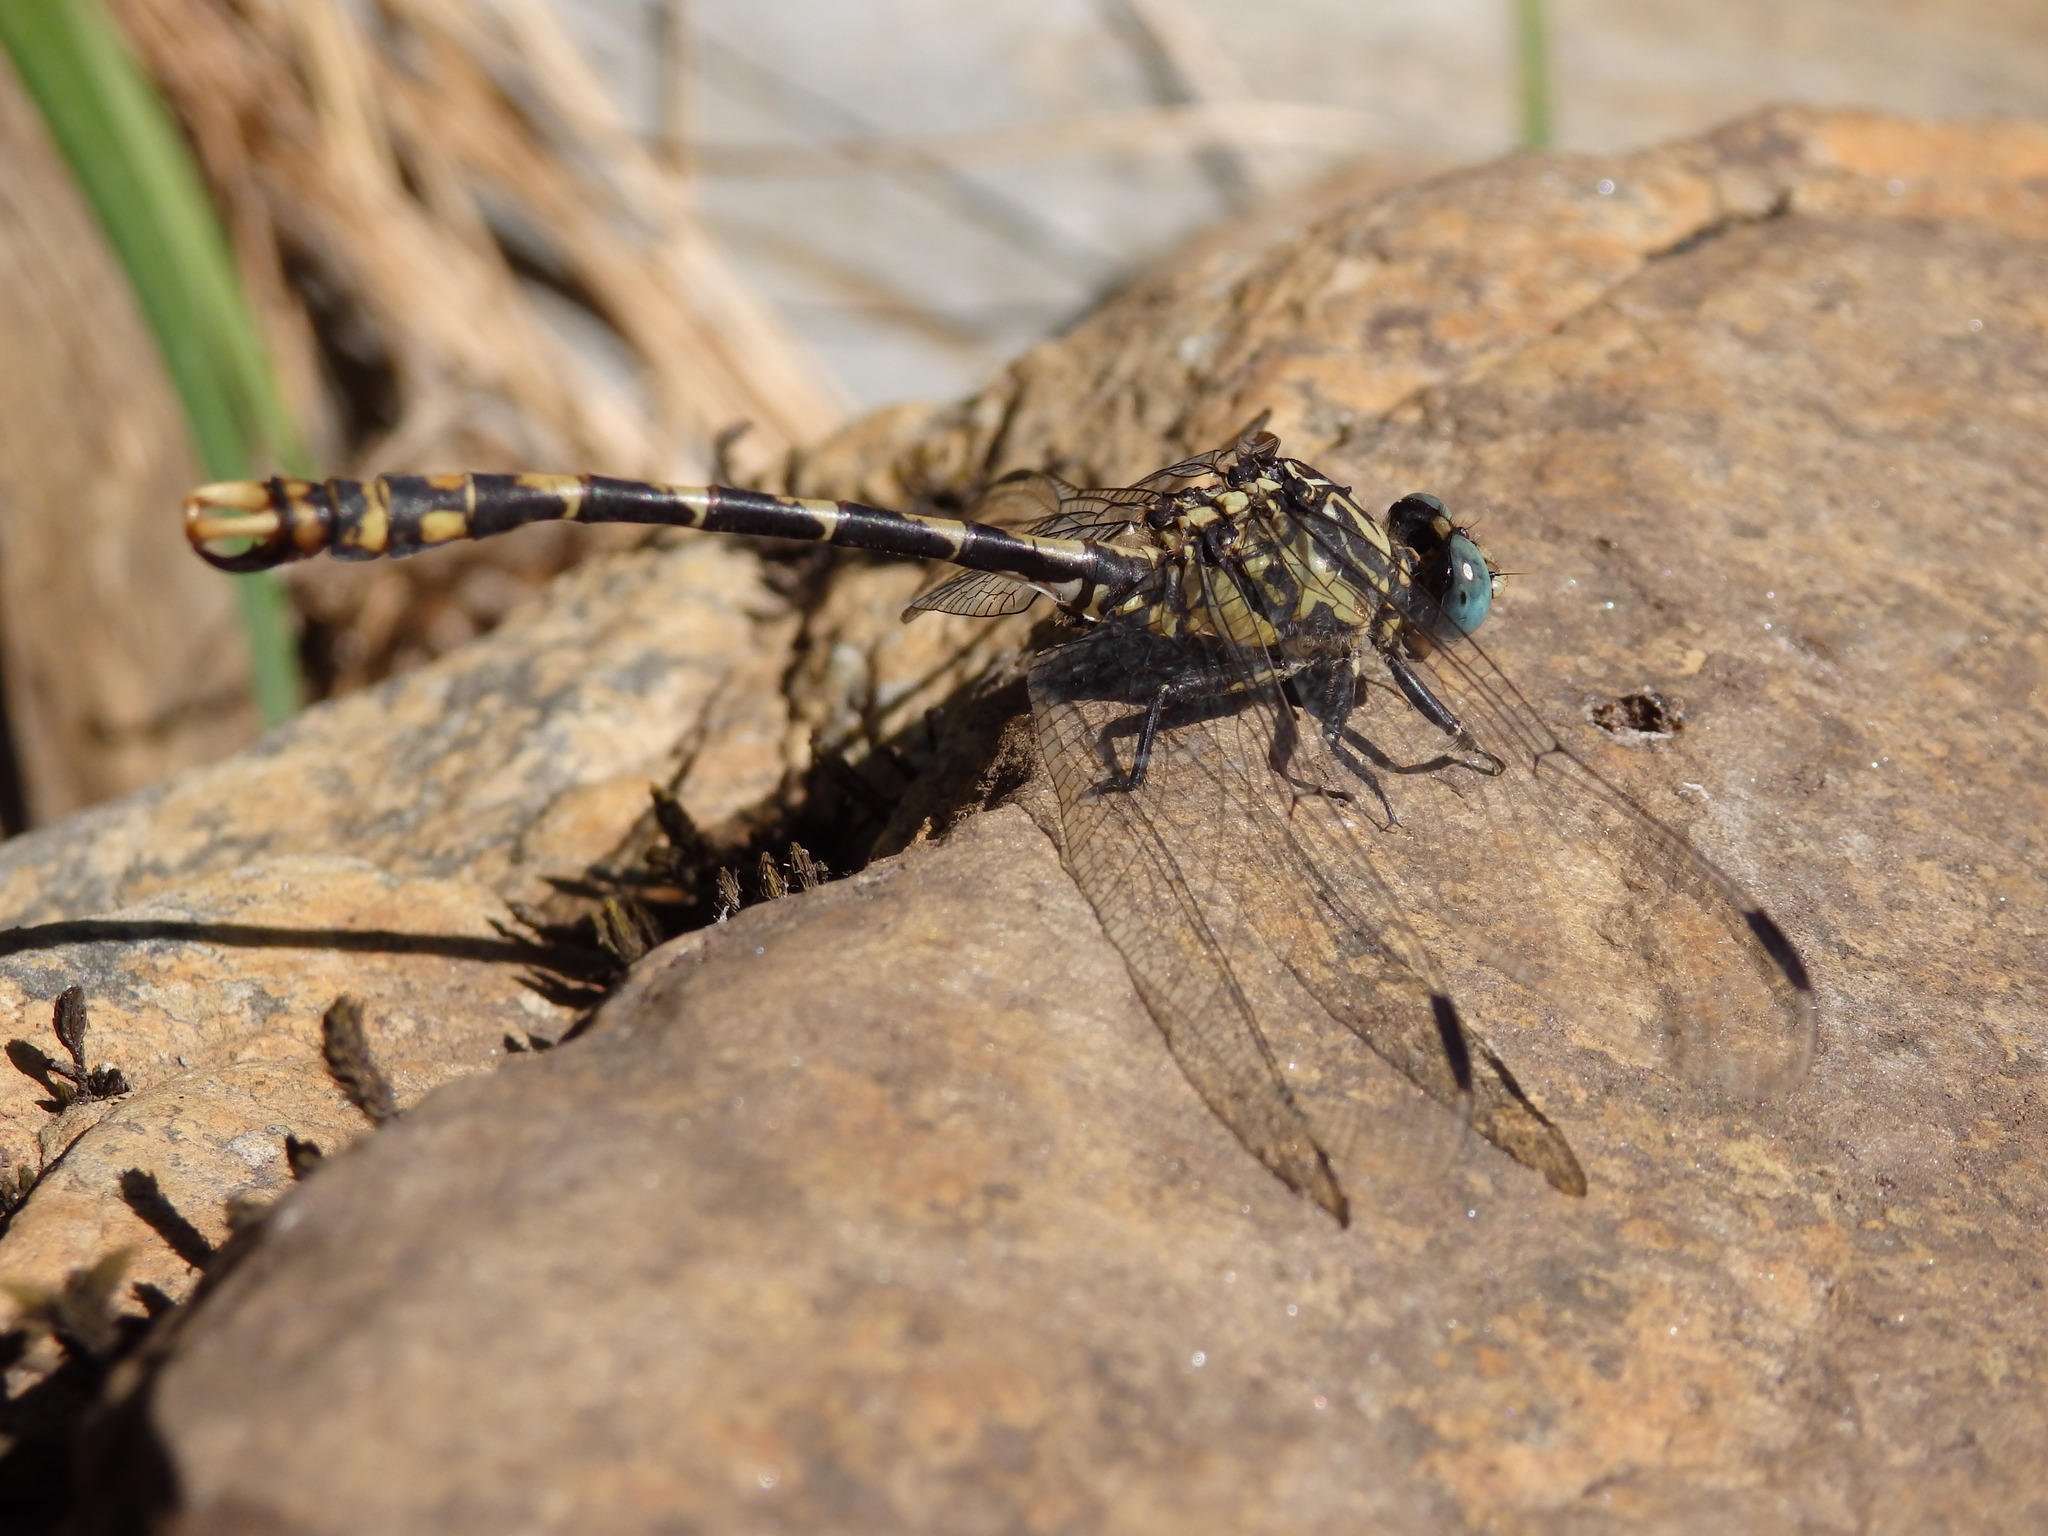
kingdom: Animalia
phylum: Arthropoda
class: Insecta
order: Odonata
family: Gomphidae
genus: Onychogomphus
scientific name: Onychogomphus uncatus
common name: Large pincertail
